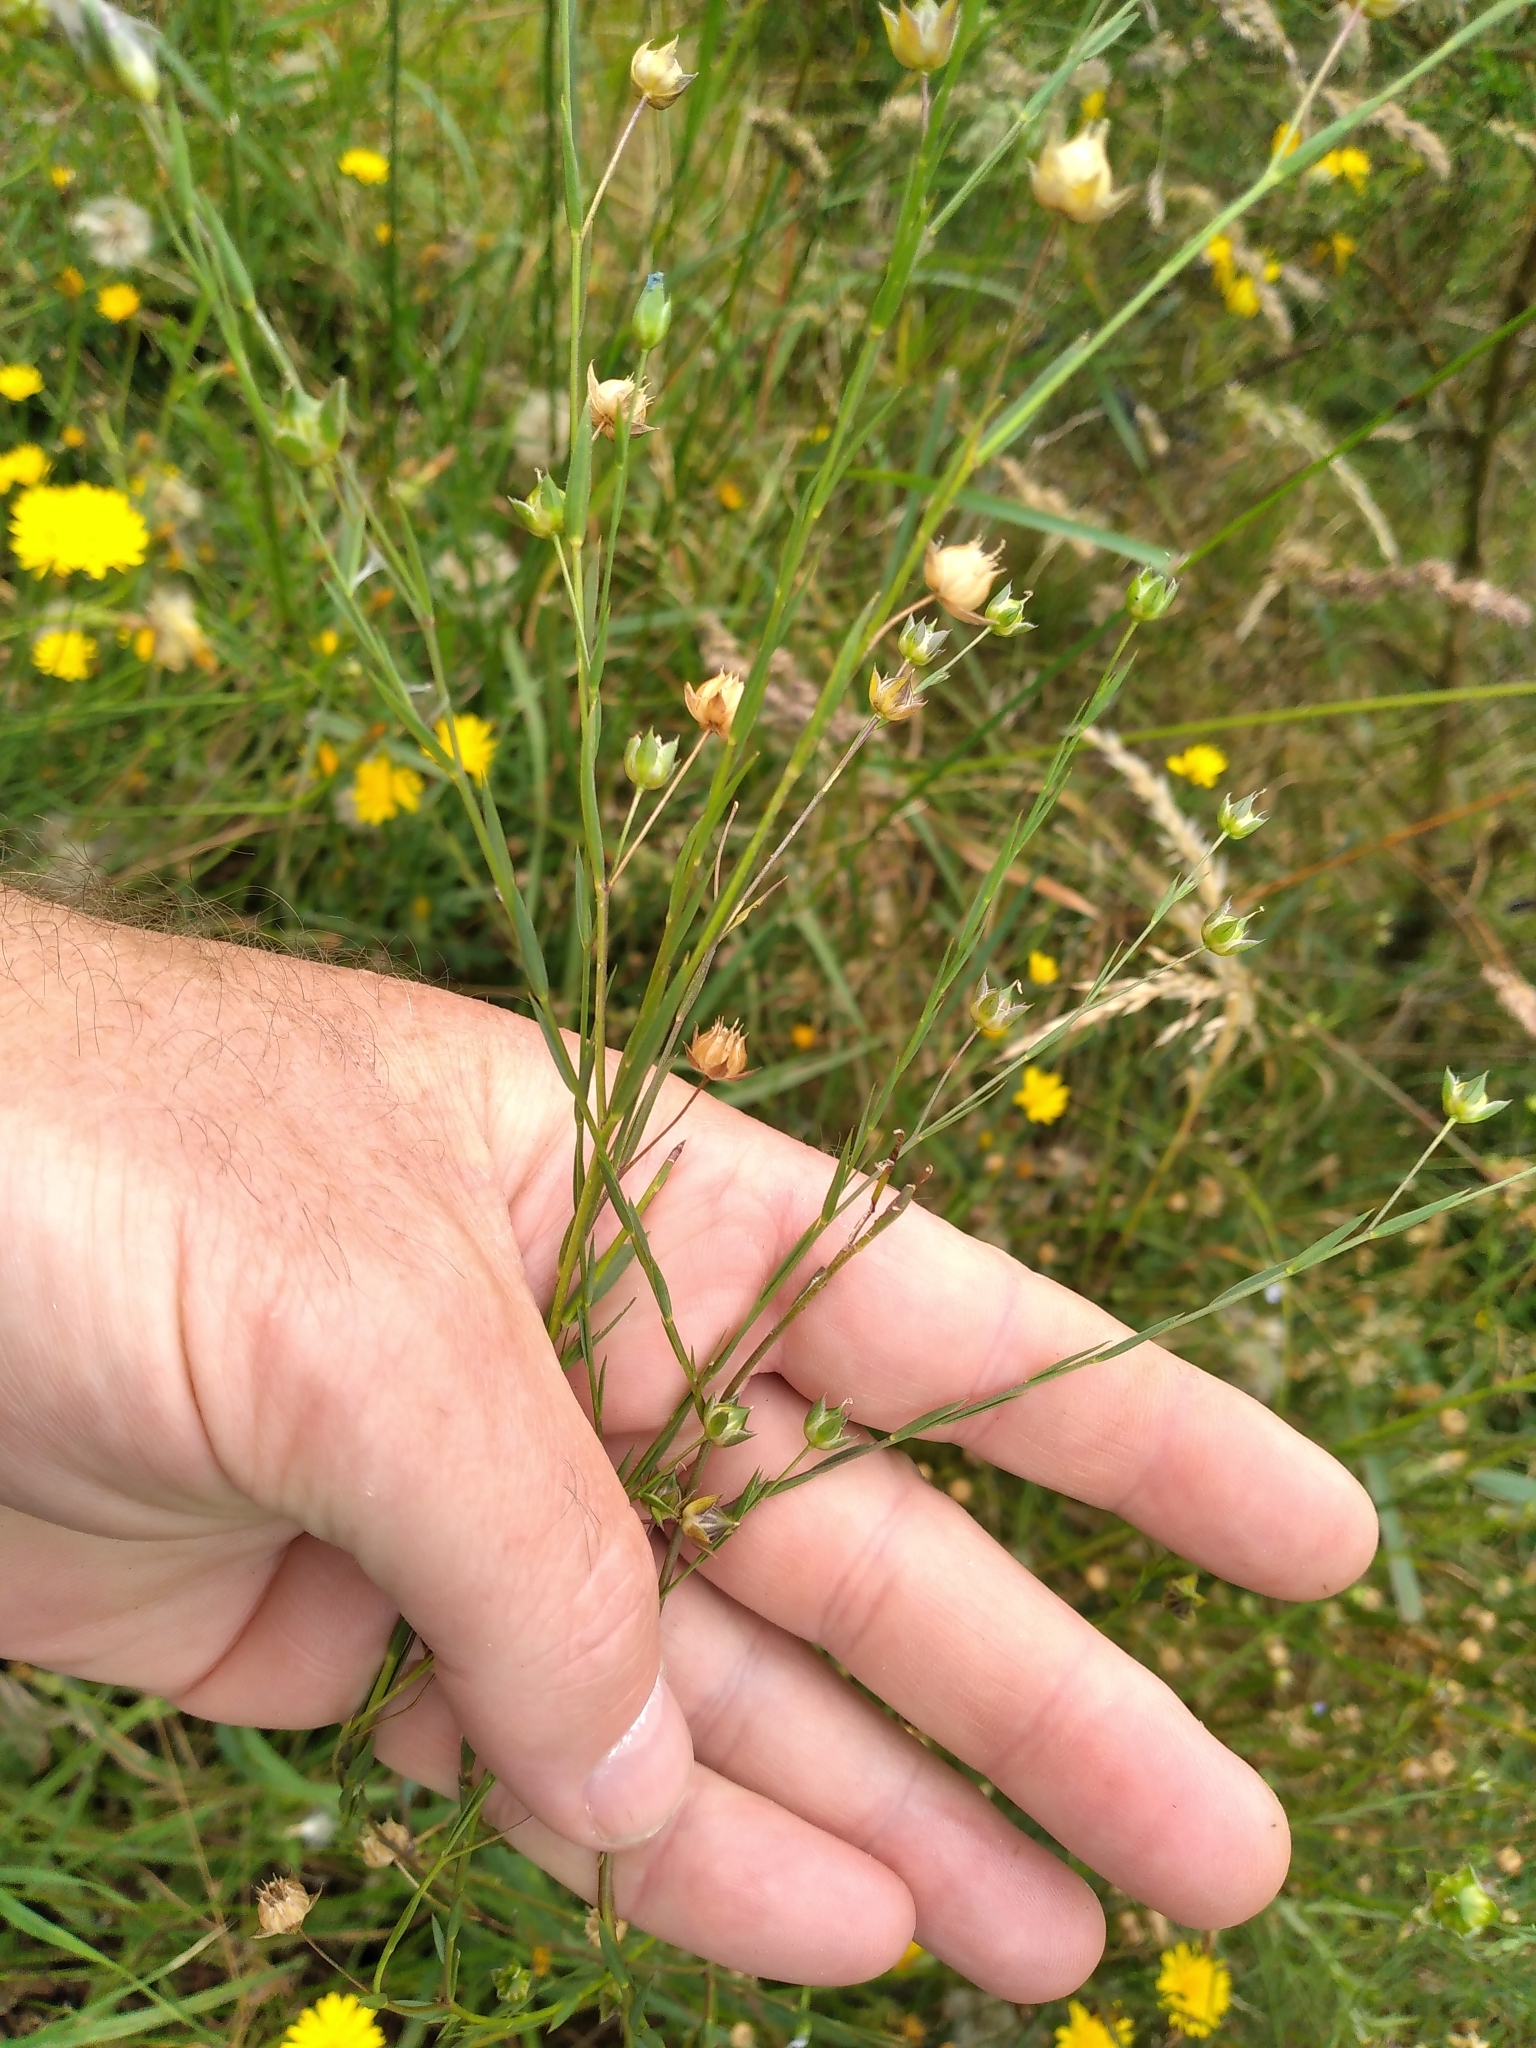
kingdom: Plantae
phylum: Tracheophyta
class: Magnoliopsida
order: Malpighiales
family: Linaceae
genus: Linum
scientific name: Linum bienne
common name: Pale flax
